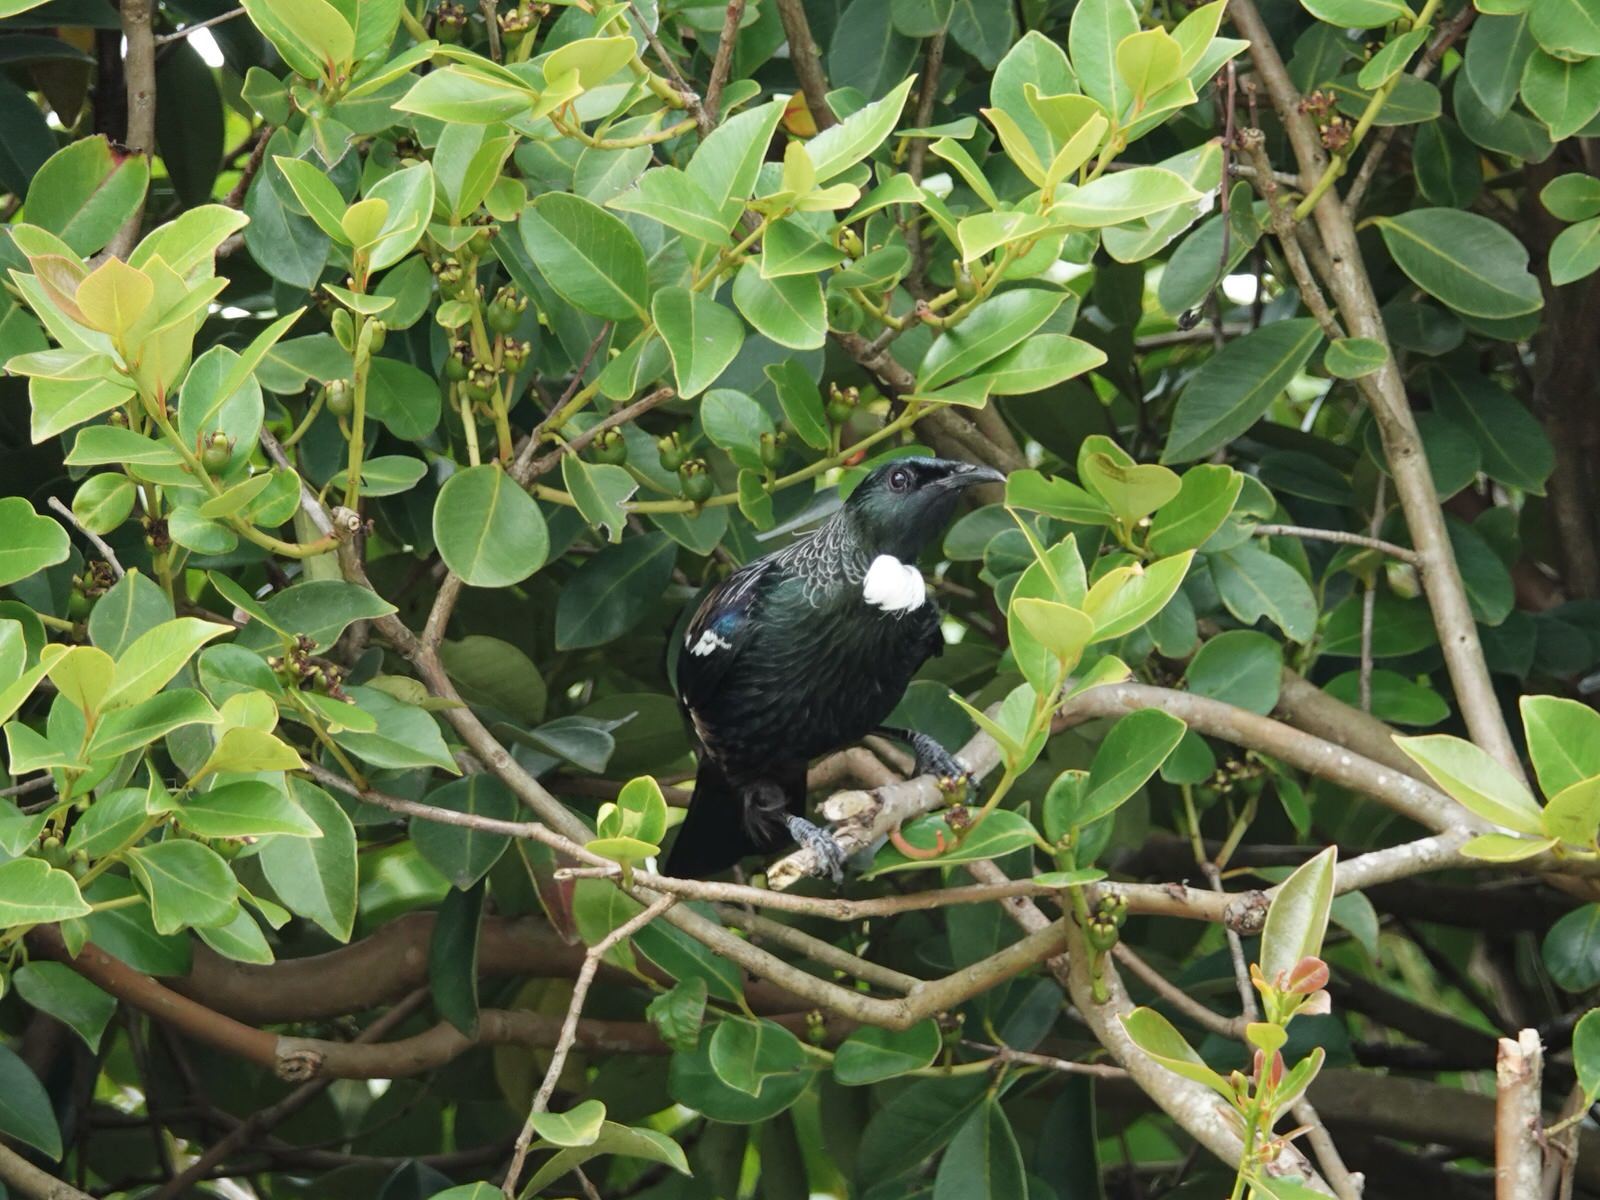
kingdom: Animalia
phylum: Chordata
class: Aves
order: Passeriformes
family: Meliphagidae
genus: Prosthemadera
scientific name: Prosthemadera novaeseelandiae
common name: Tui
